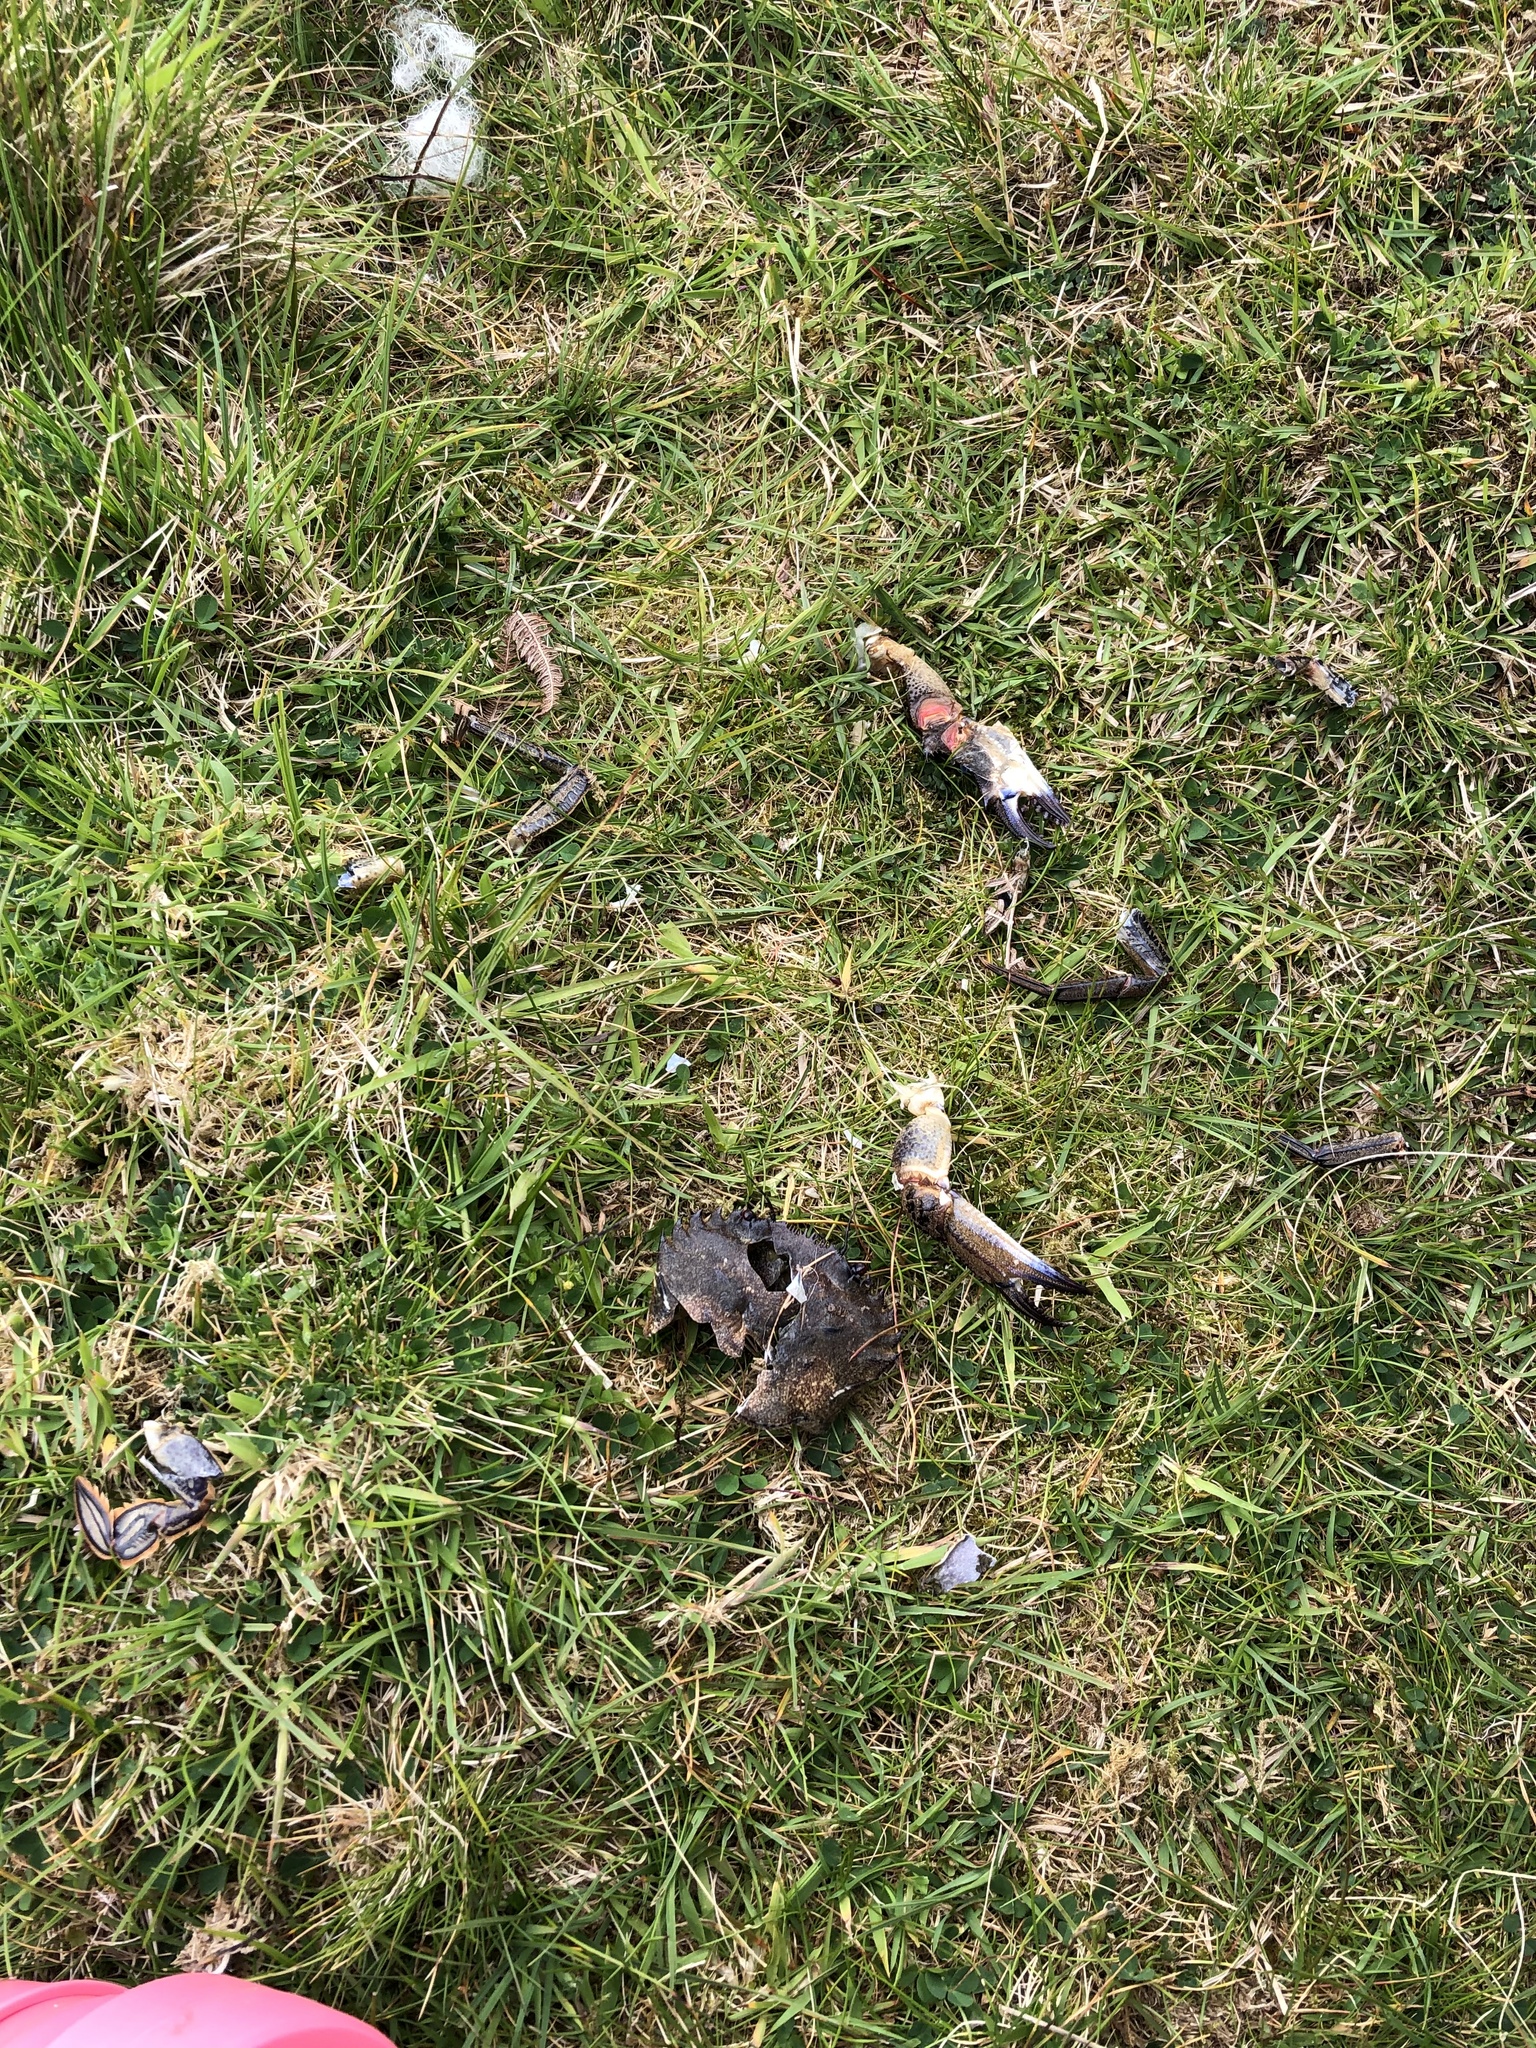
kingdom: Animalia
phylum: Arthropoda
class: Malacostraca
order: Decapoda
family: Polybiidae
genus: Necora
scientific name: Necora puber
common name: Velvet swimming crab
